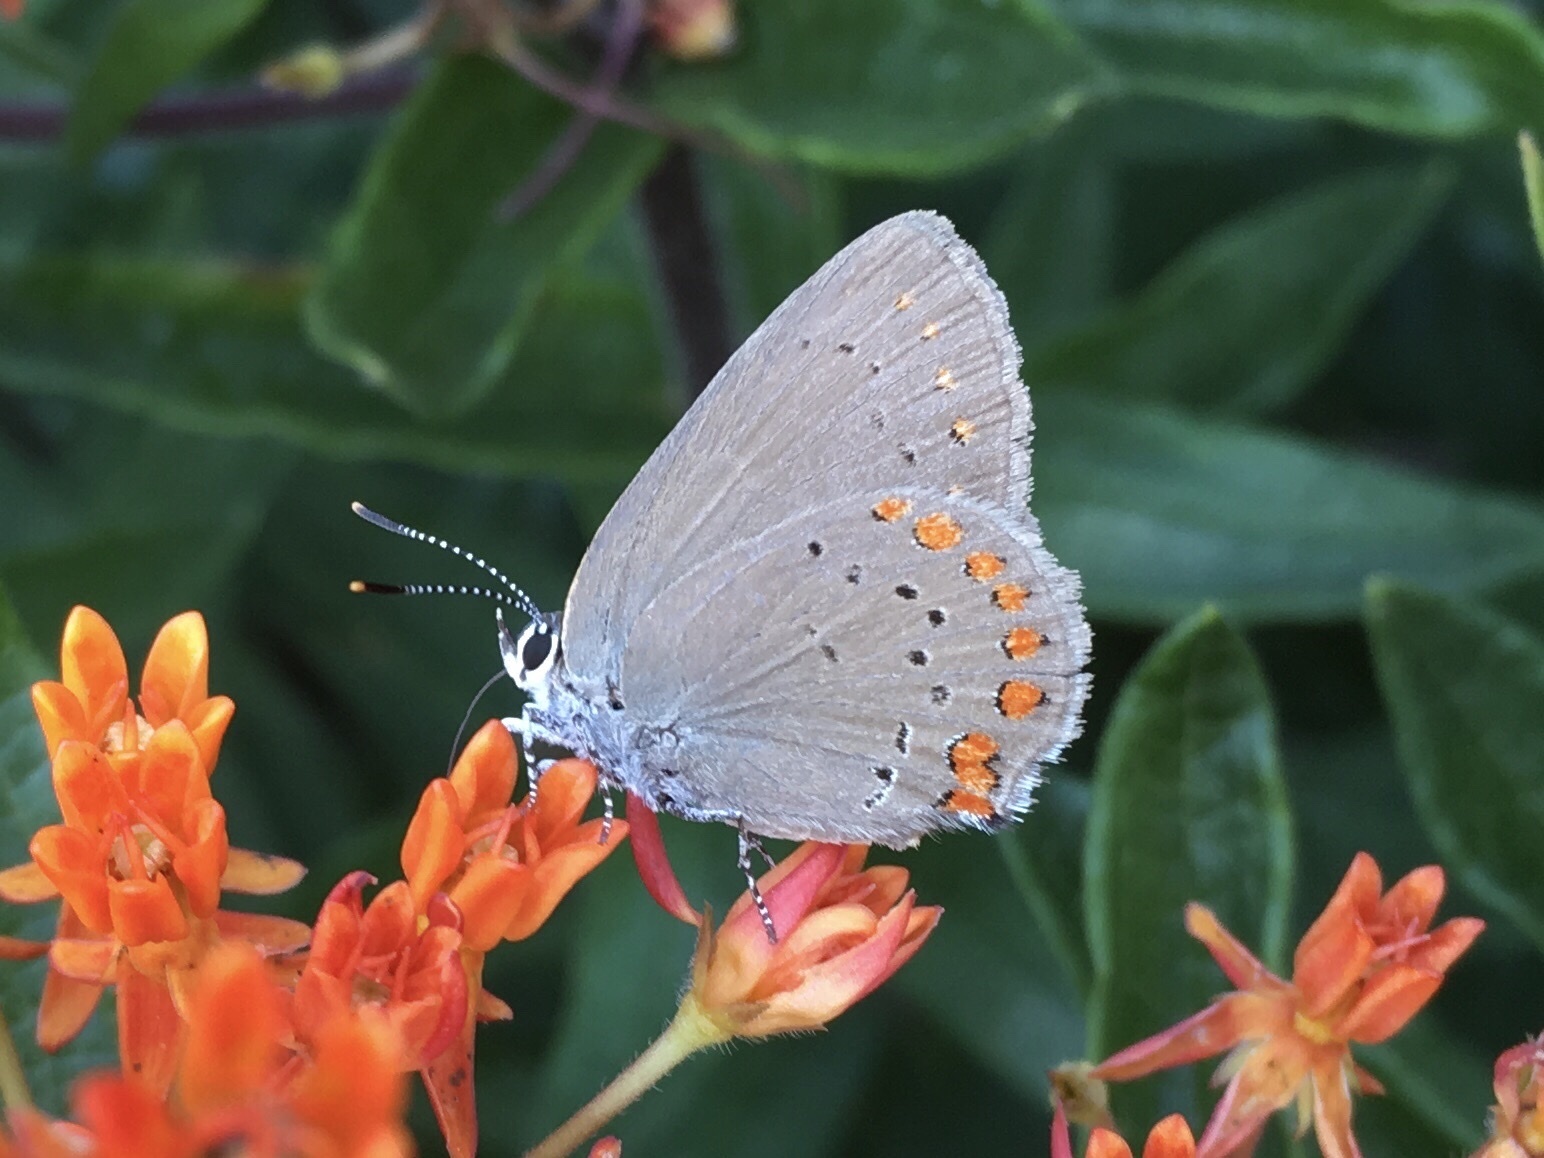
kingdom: Animalia
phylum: Arthropoda
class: Insecta
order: Lepidoptera
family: Lycaenidae
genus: Harkenclenus
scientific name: Harkenclenus titus
